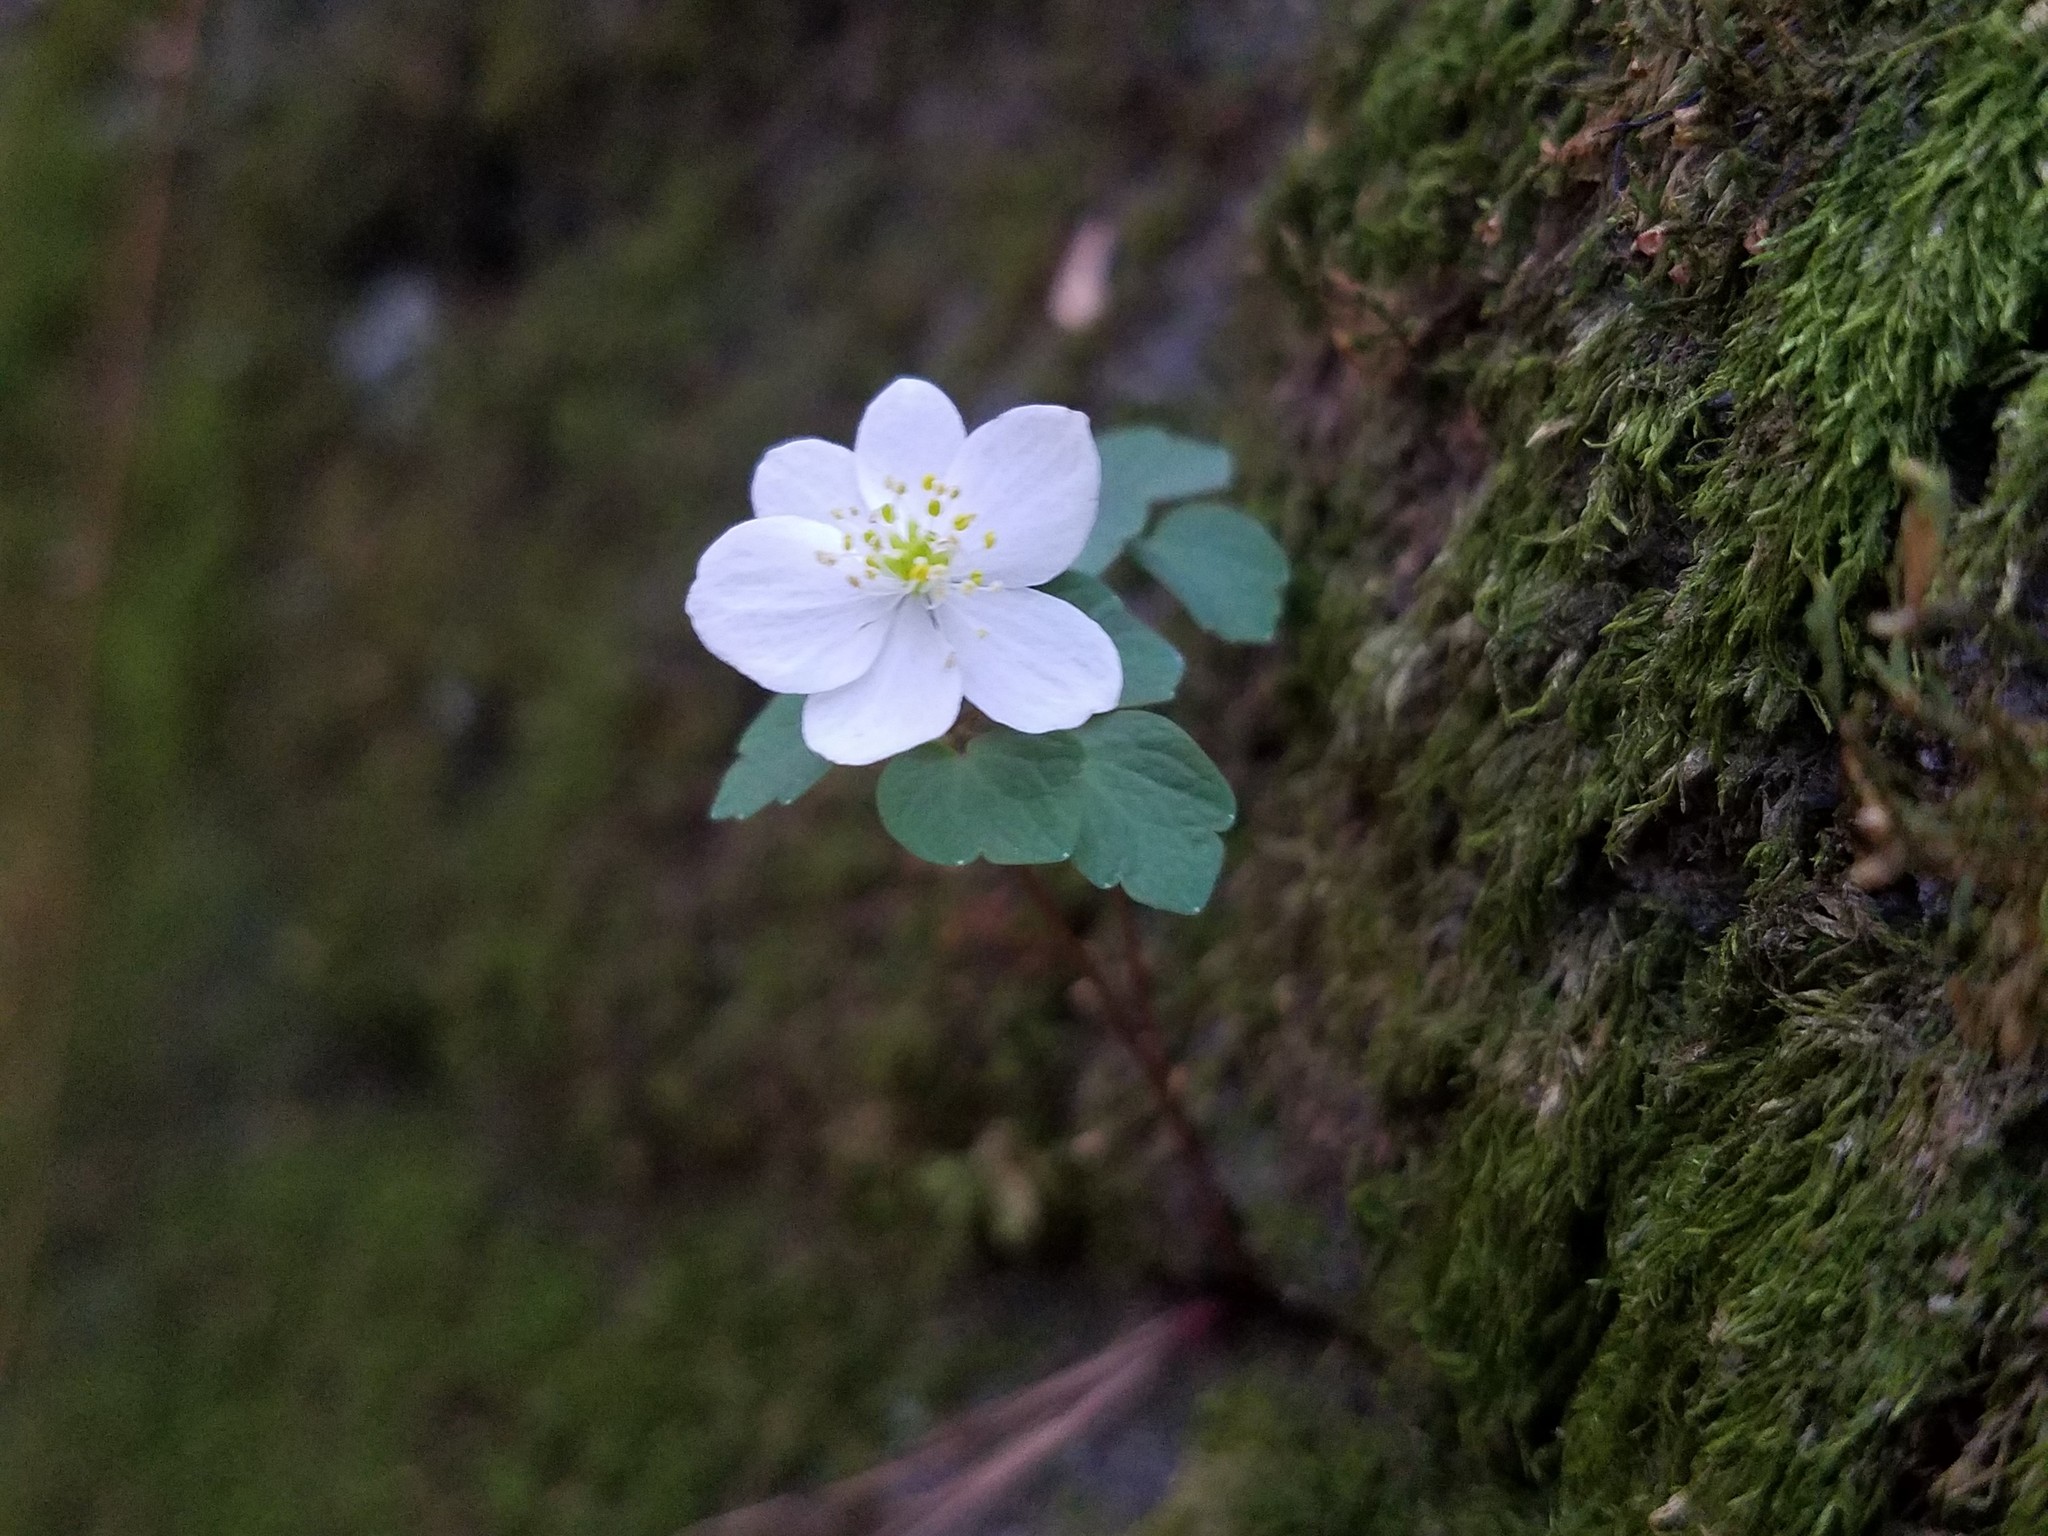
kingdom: Plantae
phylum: Tracheophyta
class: Magnoliopsida
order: Ranunculales
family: Ranunculaceae
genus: Thalictrum
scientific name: Thalictrum thalictroides
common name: Rue-anemone
